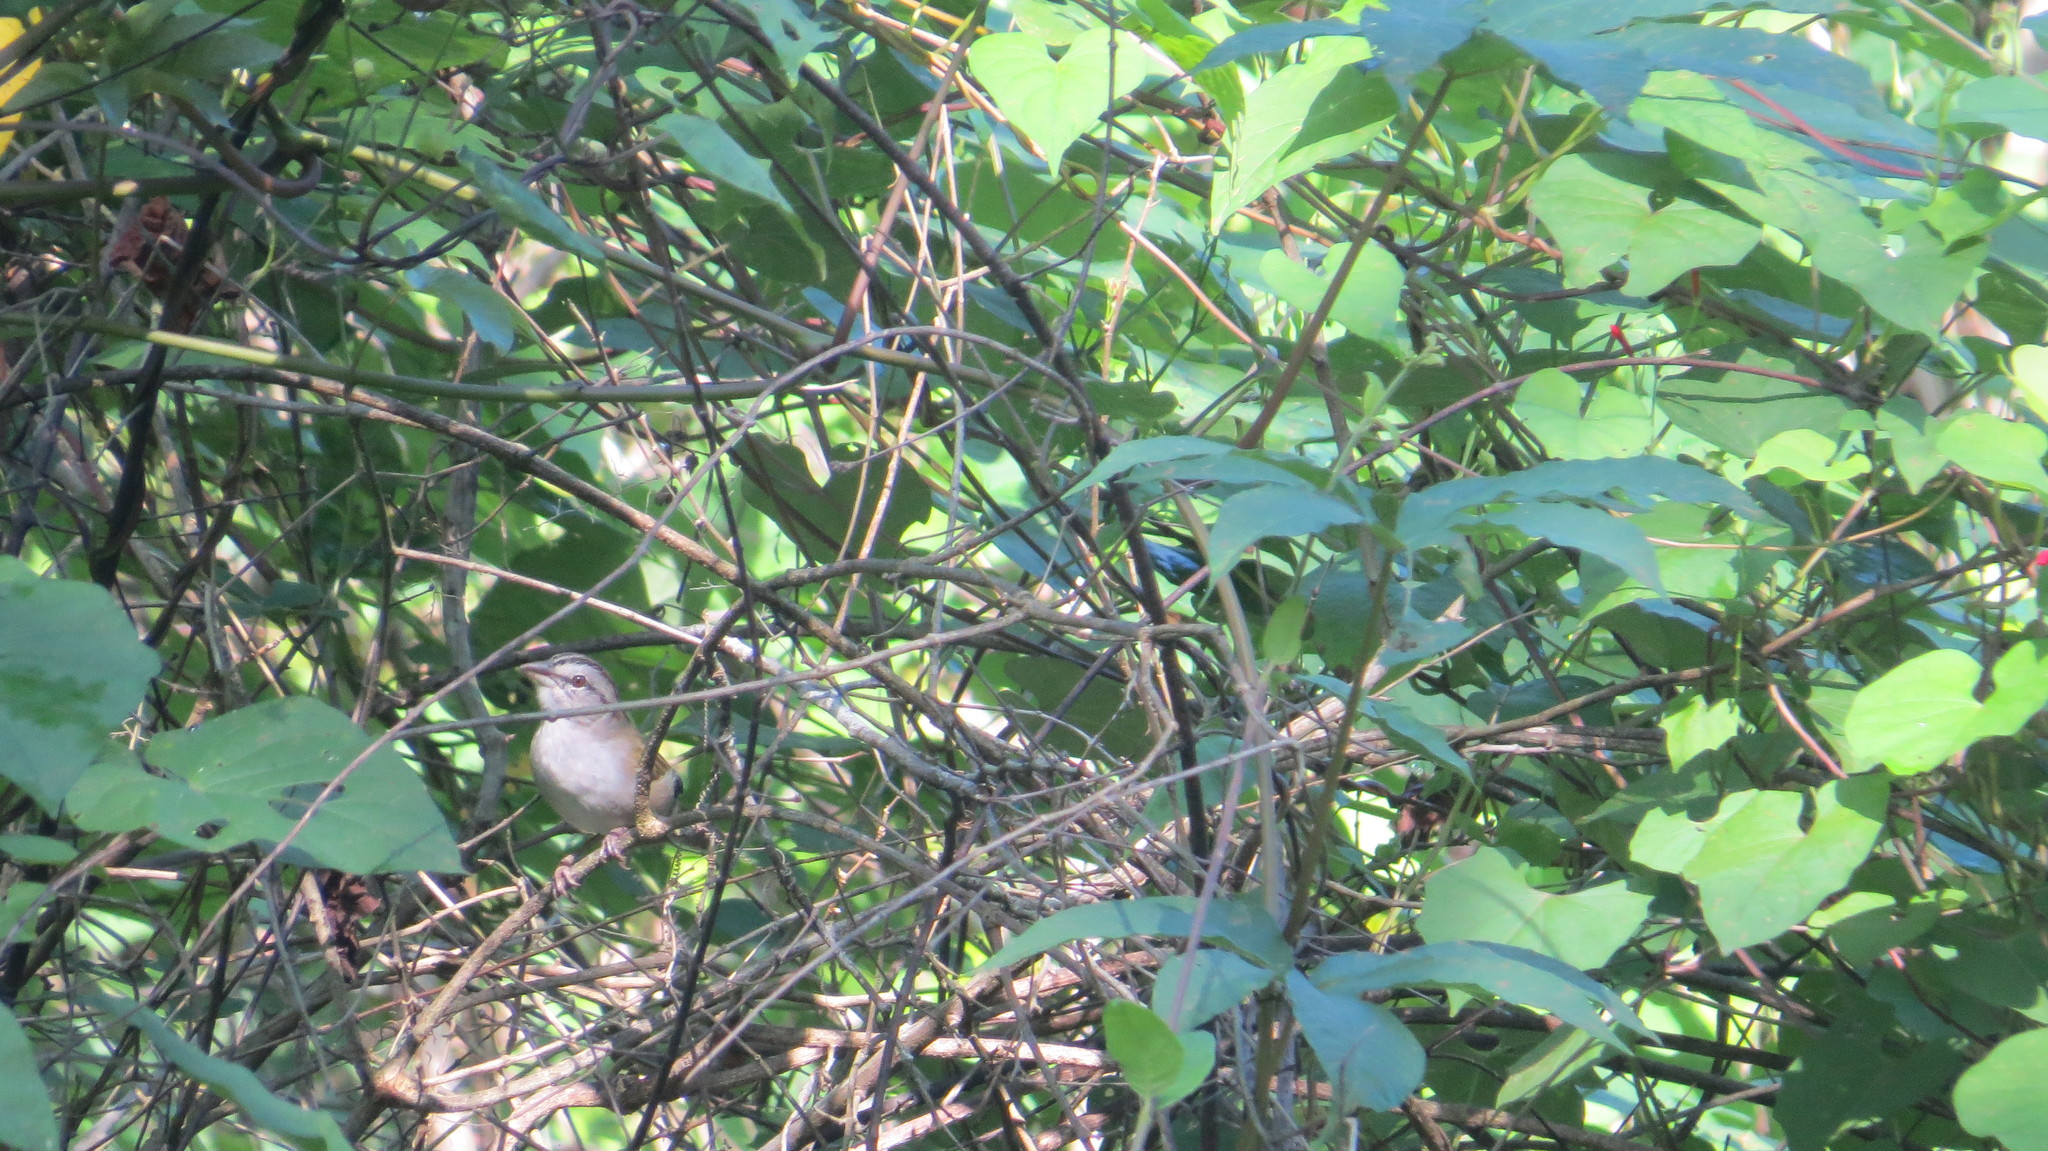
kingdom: Animalia
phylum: Chordata
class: Aves
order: Passeriformes
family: Passerellidae
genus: Arremonops
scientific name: Arremonops rufivirgatus
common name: Olive sparrow
